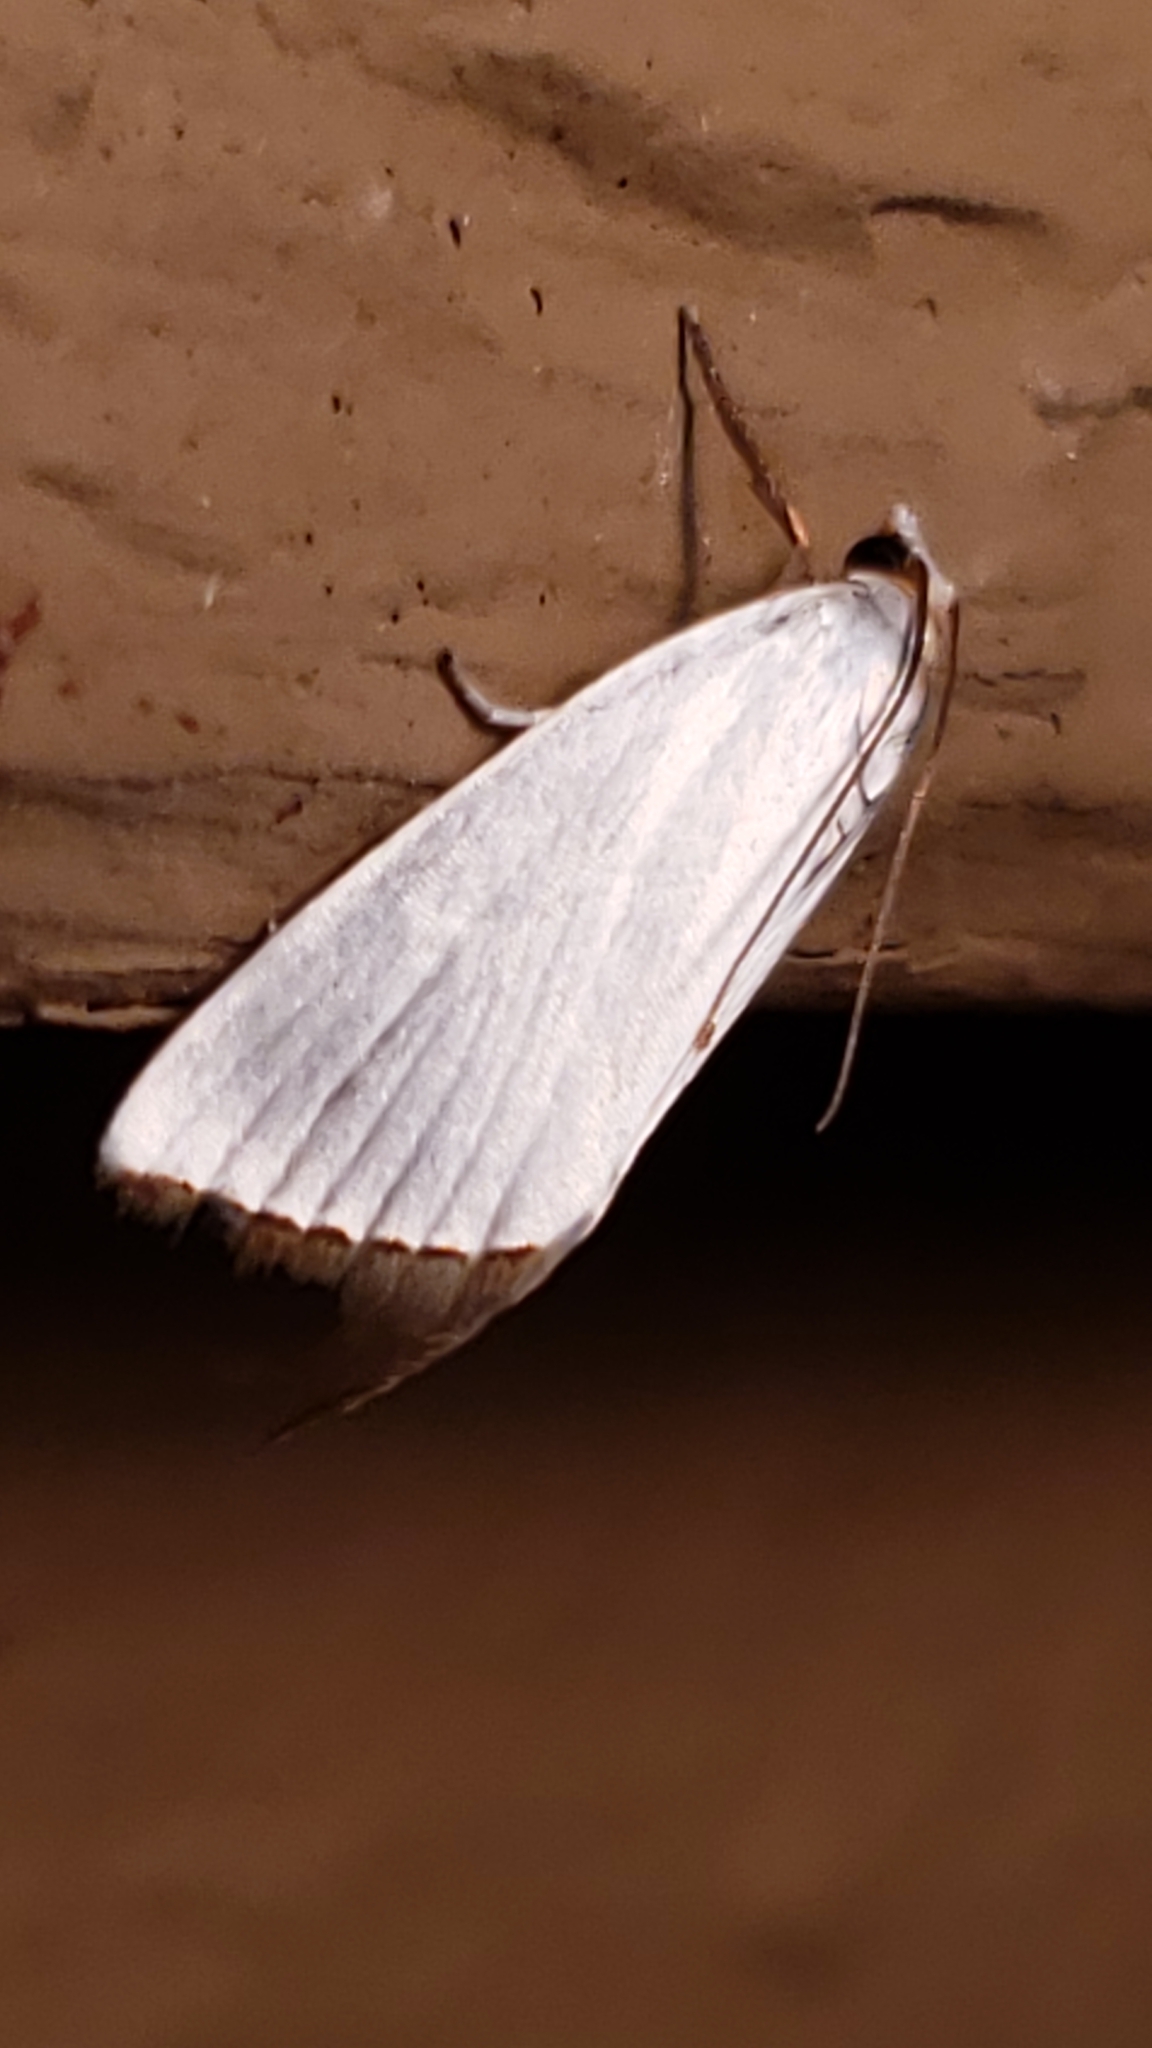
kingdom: Animalia
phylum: Arthropoda
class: Insecta
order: Lepidoptera
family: Crambidae
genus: Argyria
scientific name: Argyria nivalis
